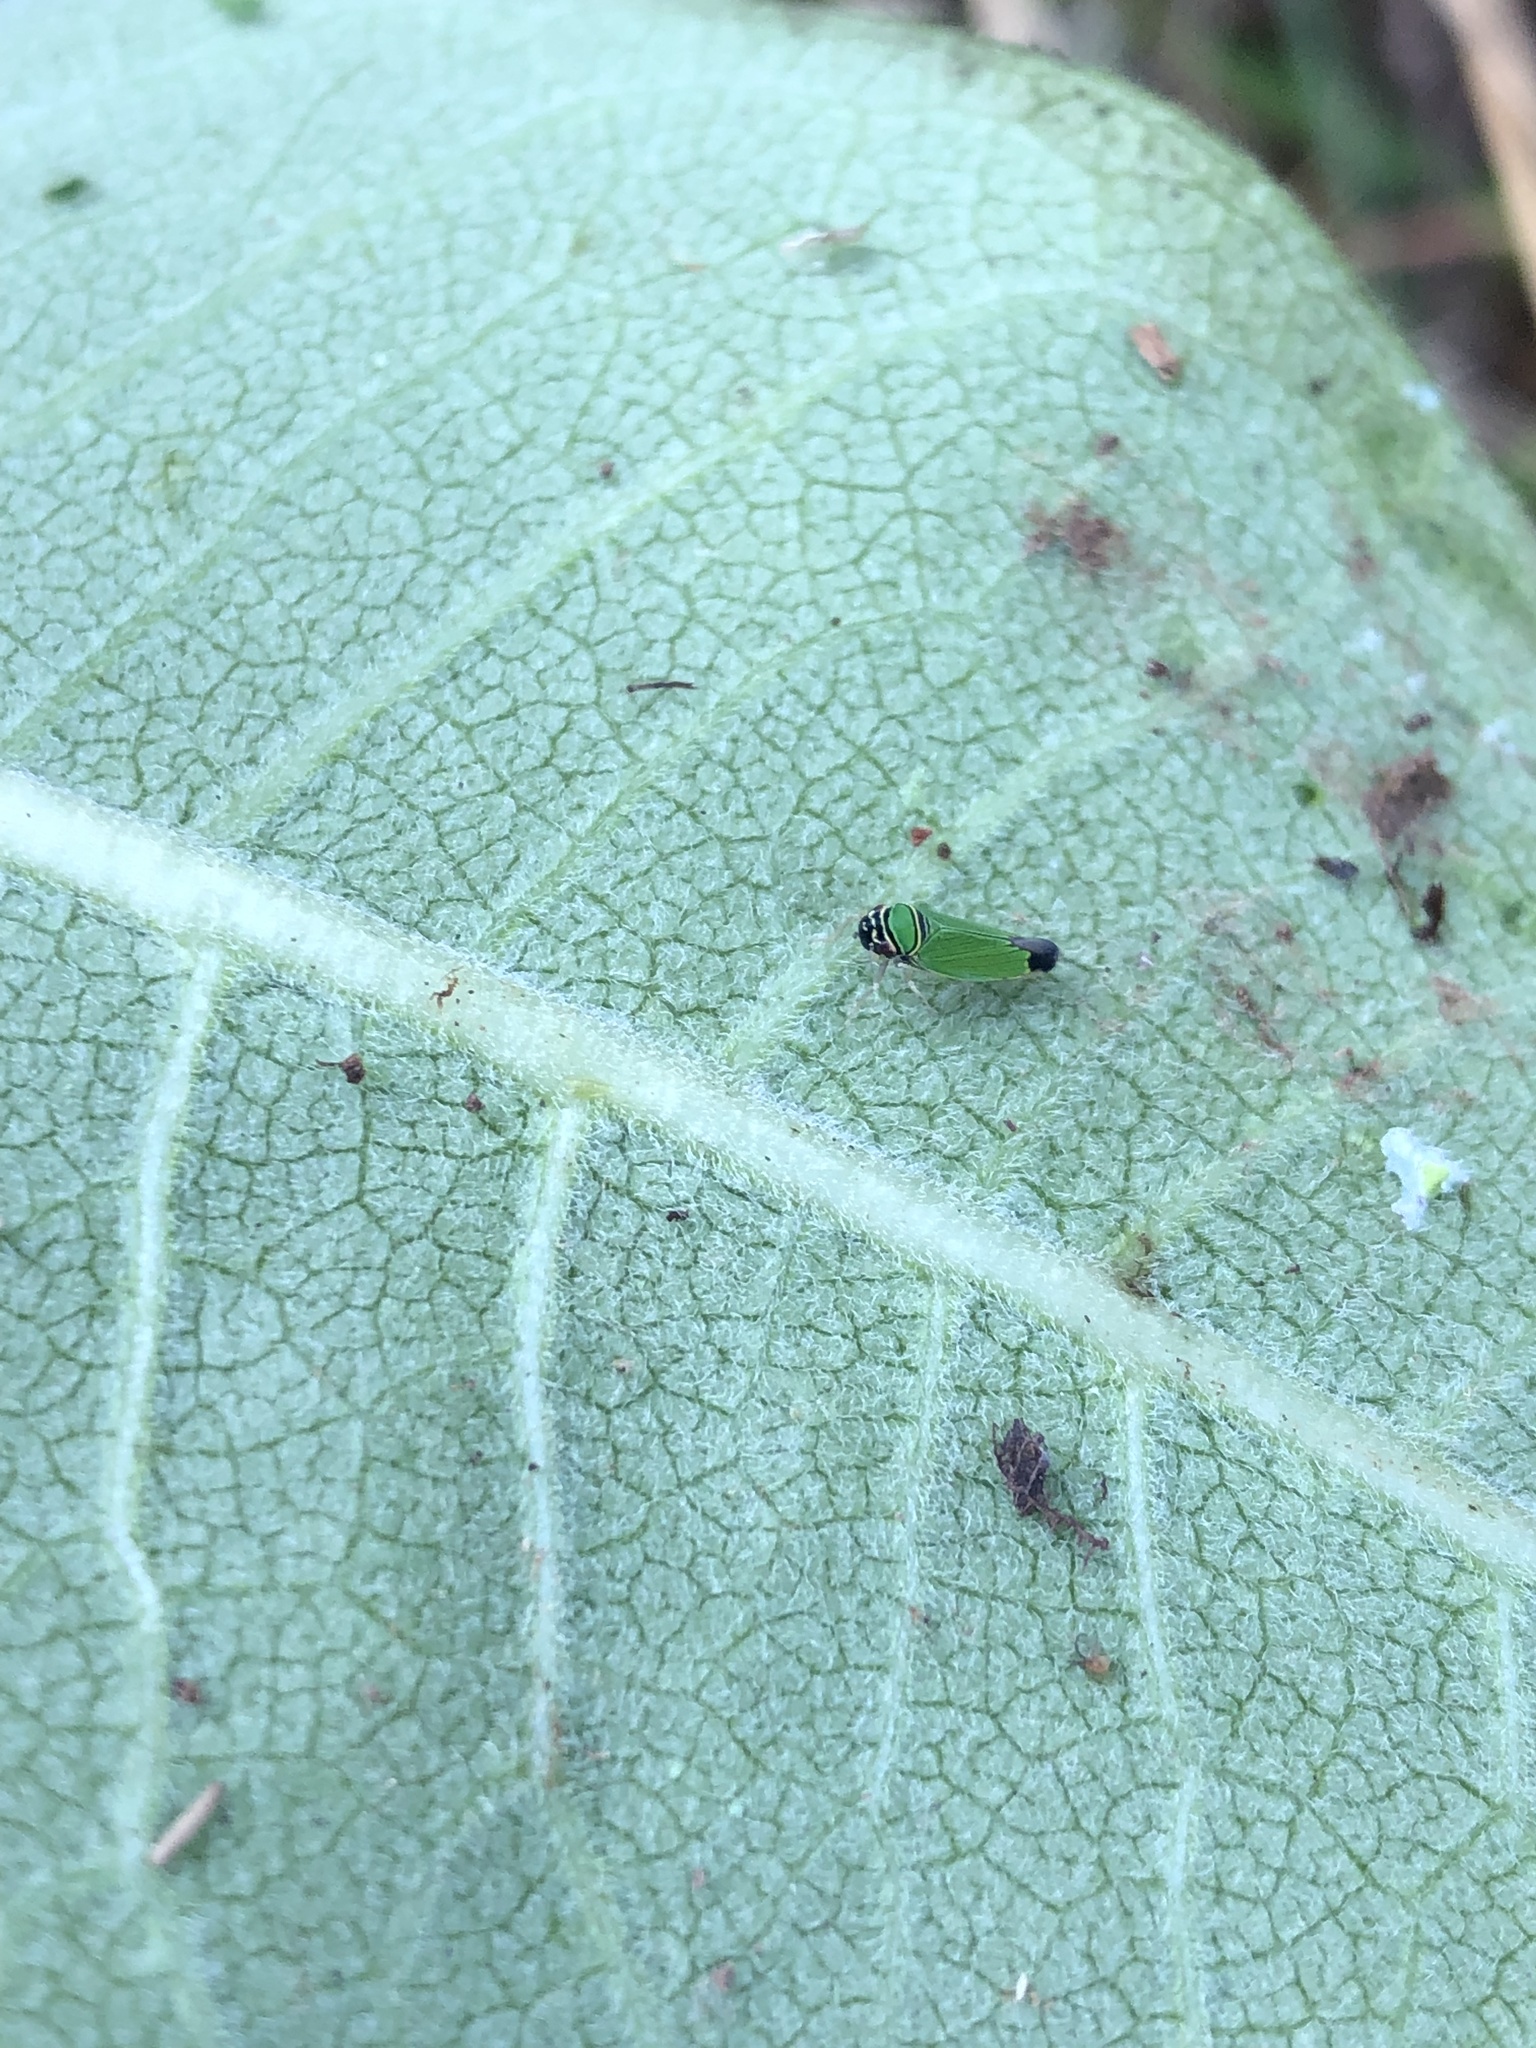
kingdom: Animalia
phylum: Arthropoda
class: Insecta
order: Hemiptera
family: Cicadellidae
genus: Tylozygus
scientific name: Tylozygus geometricus
